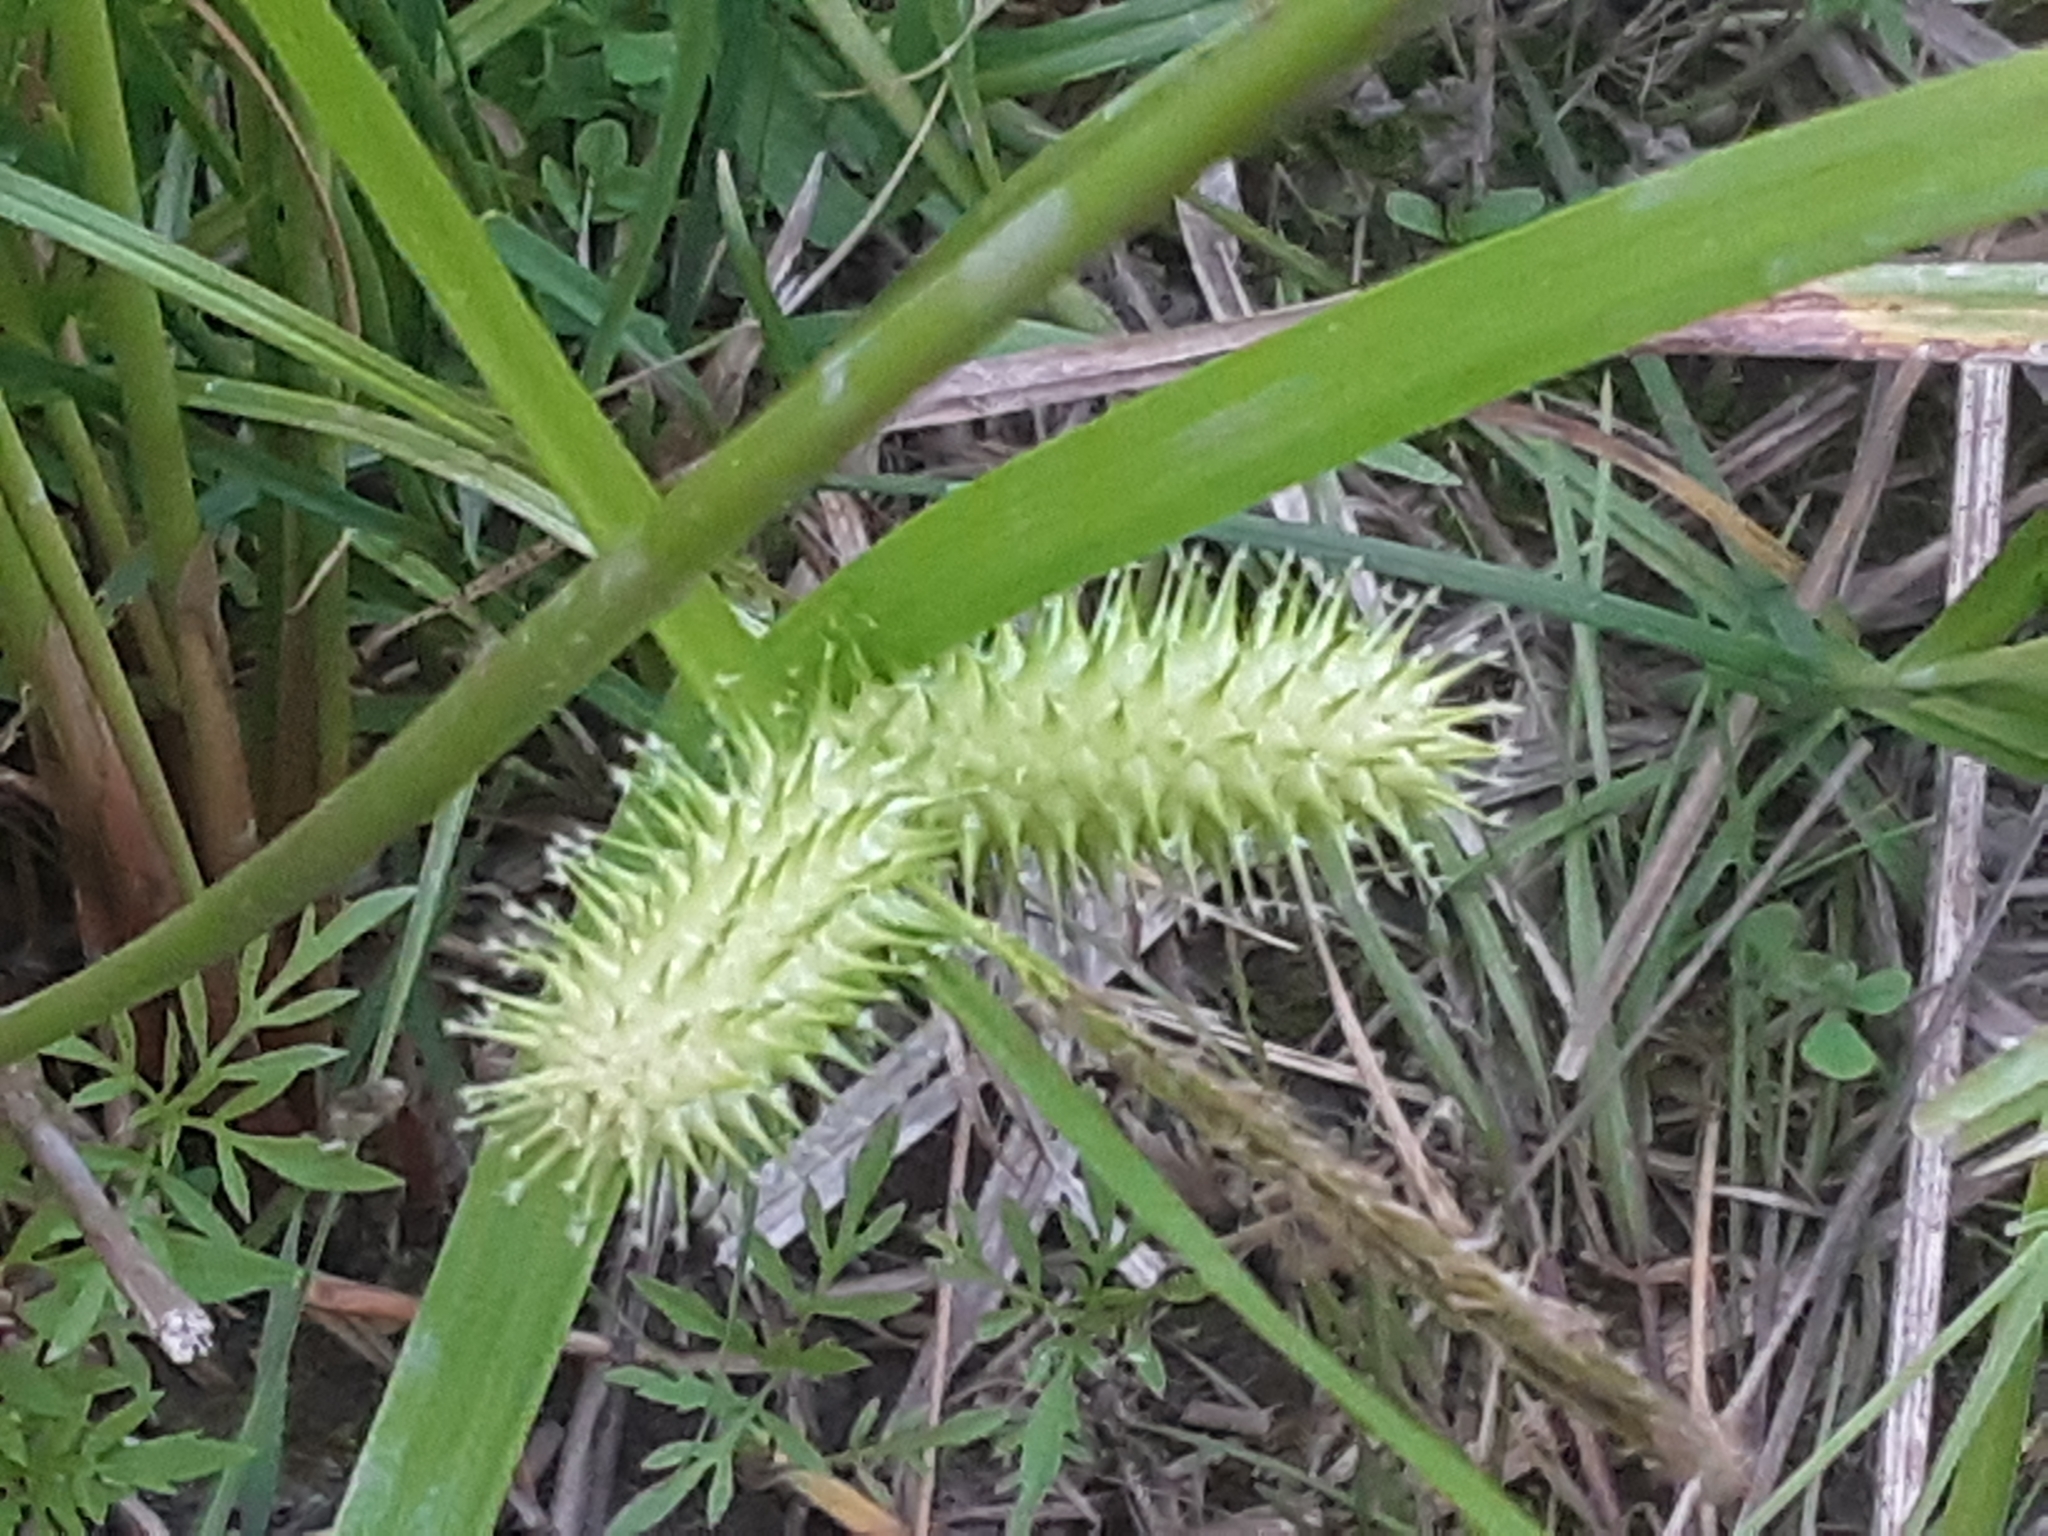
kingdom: Plantae
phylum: Tracheophyta
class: Liliopsida
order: Poales
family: Cyperaceae
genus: Carex
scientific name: Carex lurida
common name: Sallow sedge
